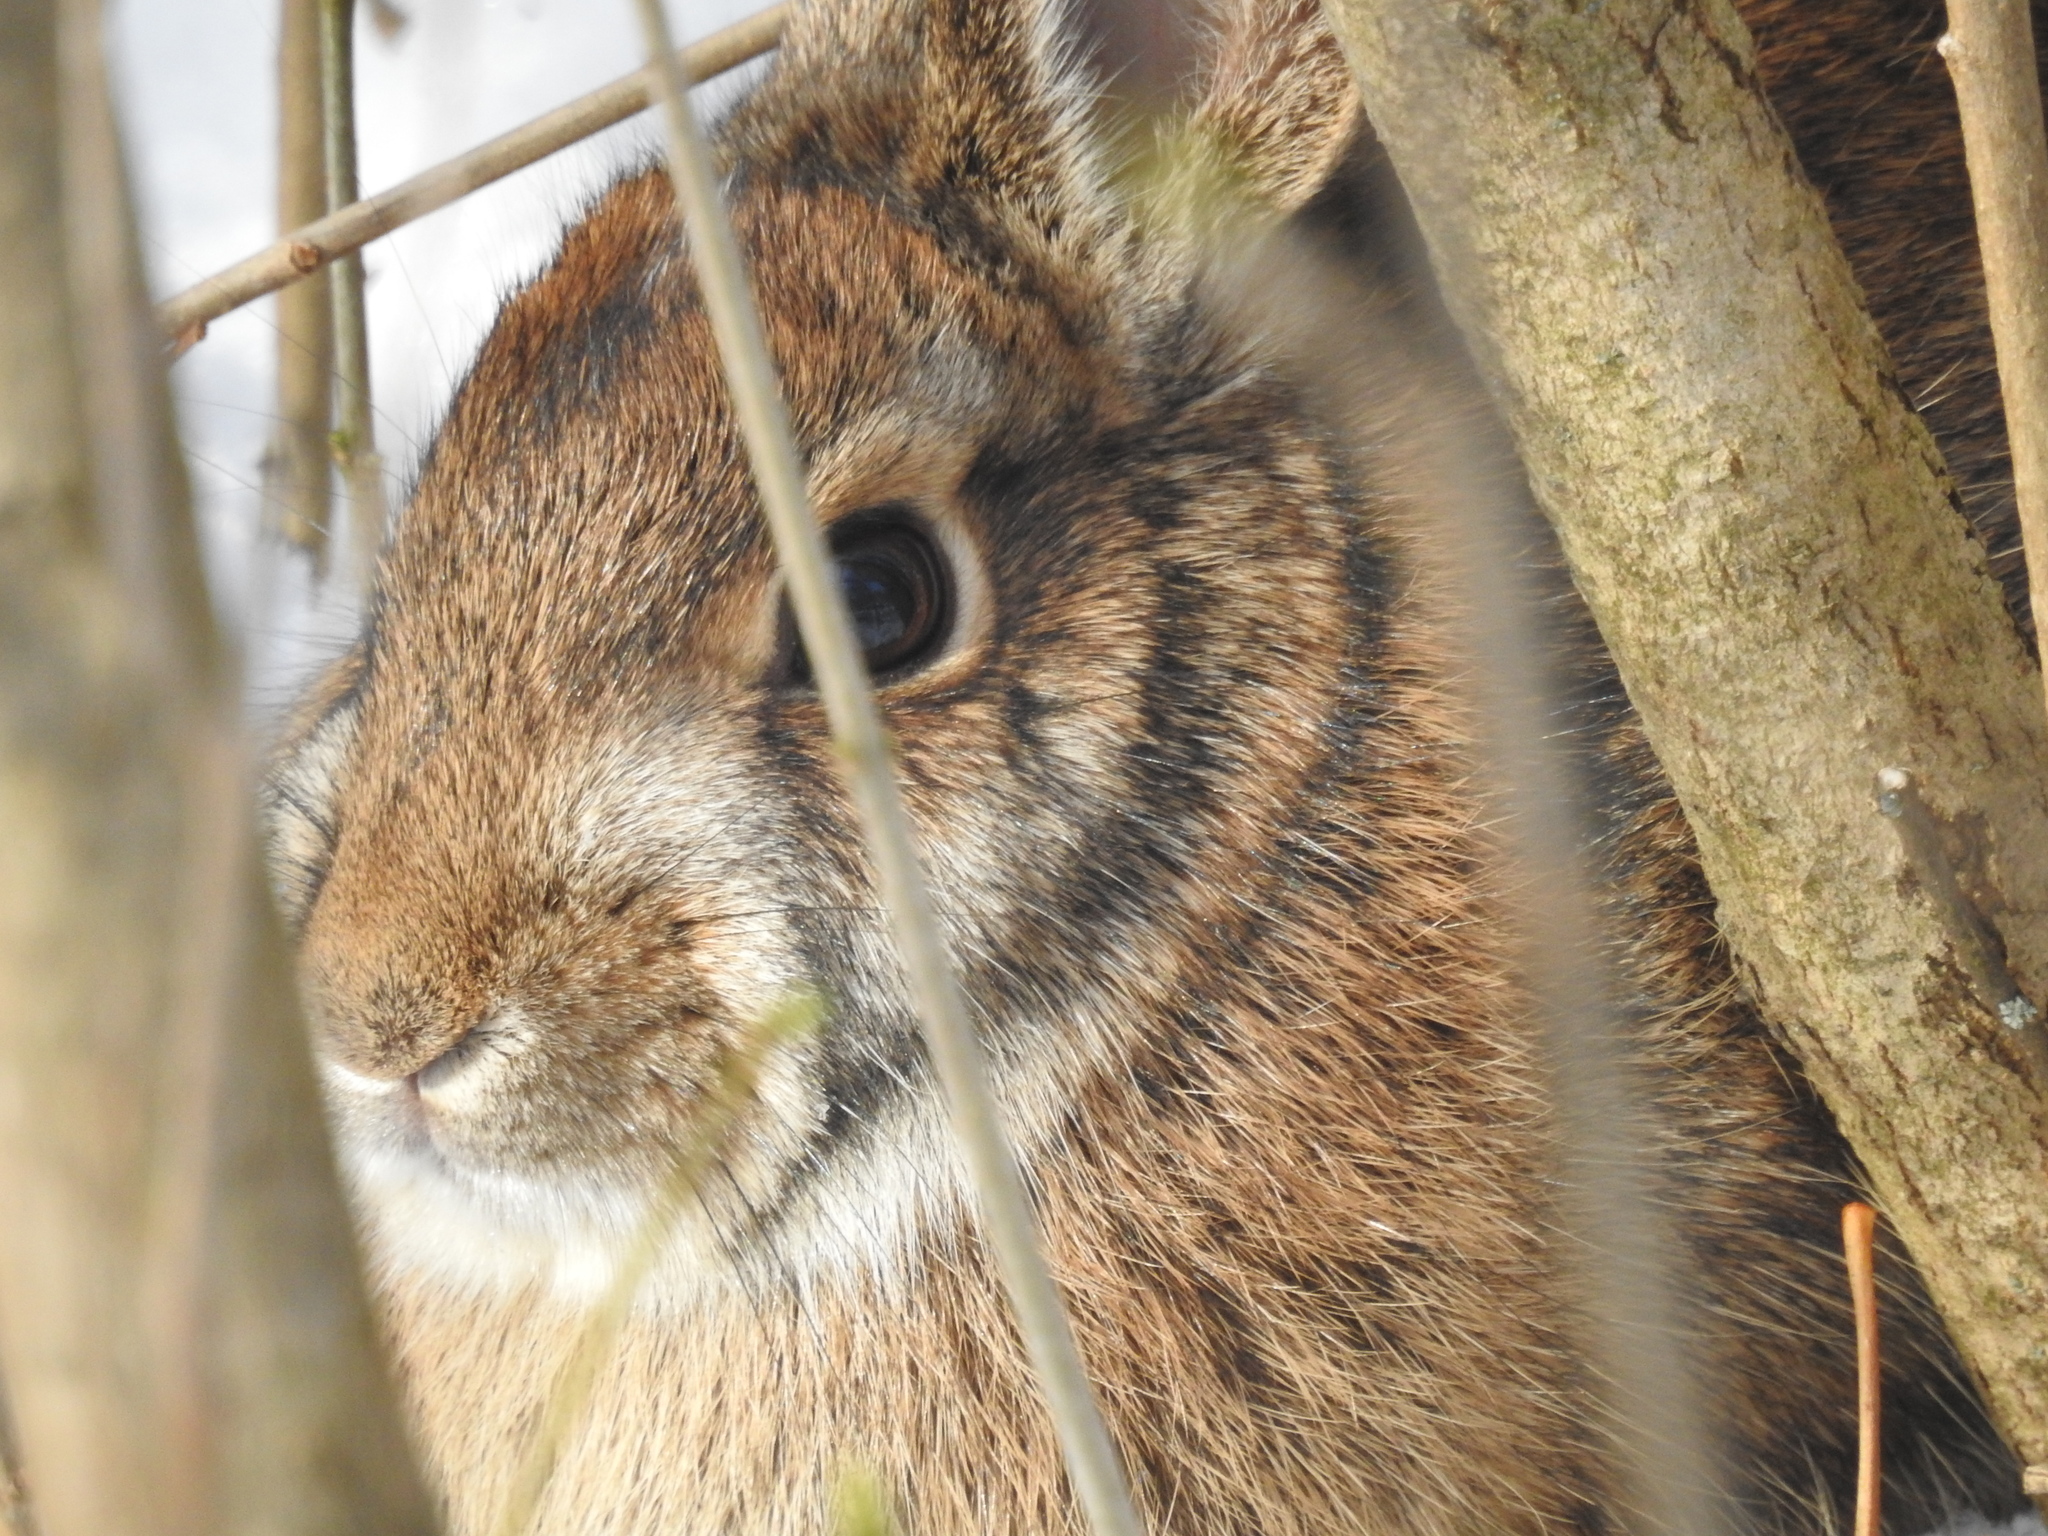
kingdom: Animalia
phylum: Chordata
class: Mammalia
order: Lagomorpha
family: Leporidae
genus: Sylvilagus
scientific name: Sylvilagus floridanus
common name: Eastern cottontail
